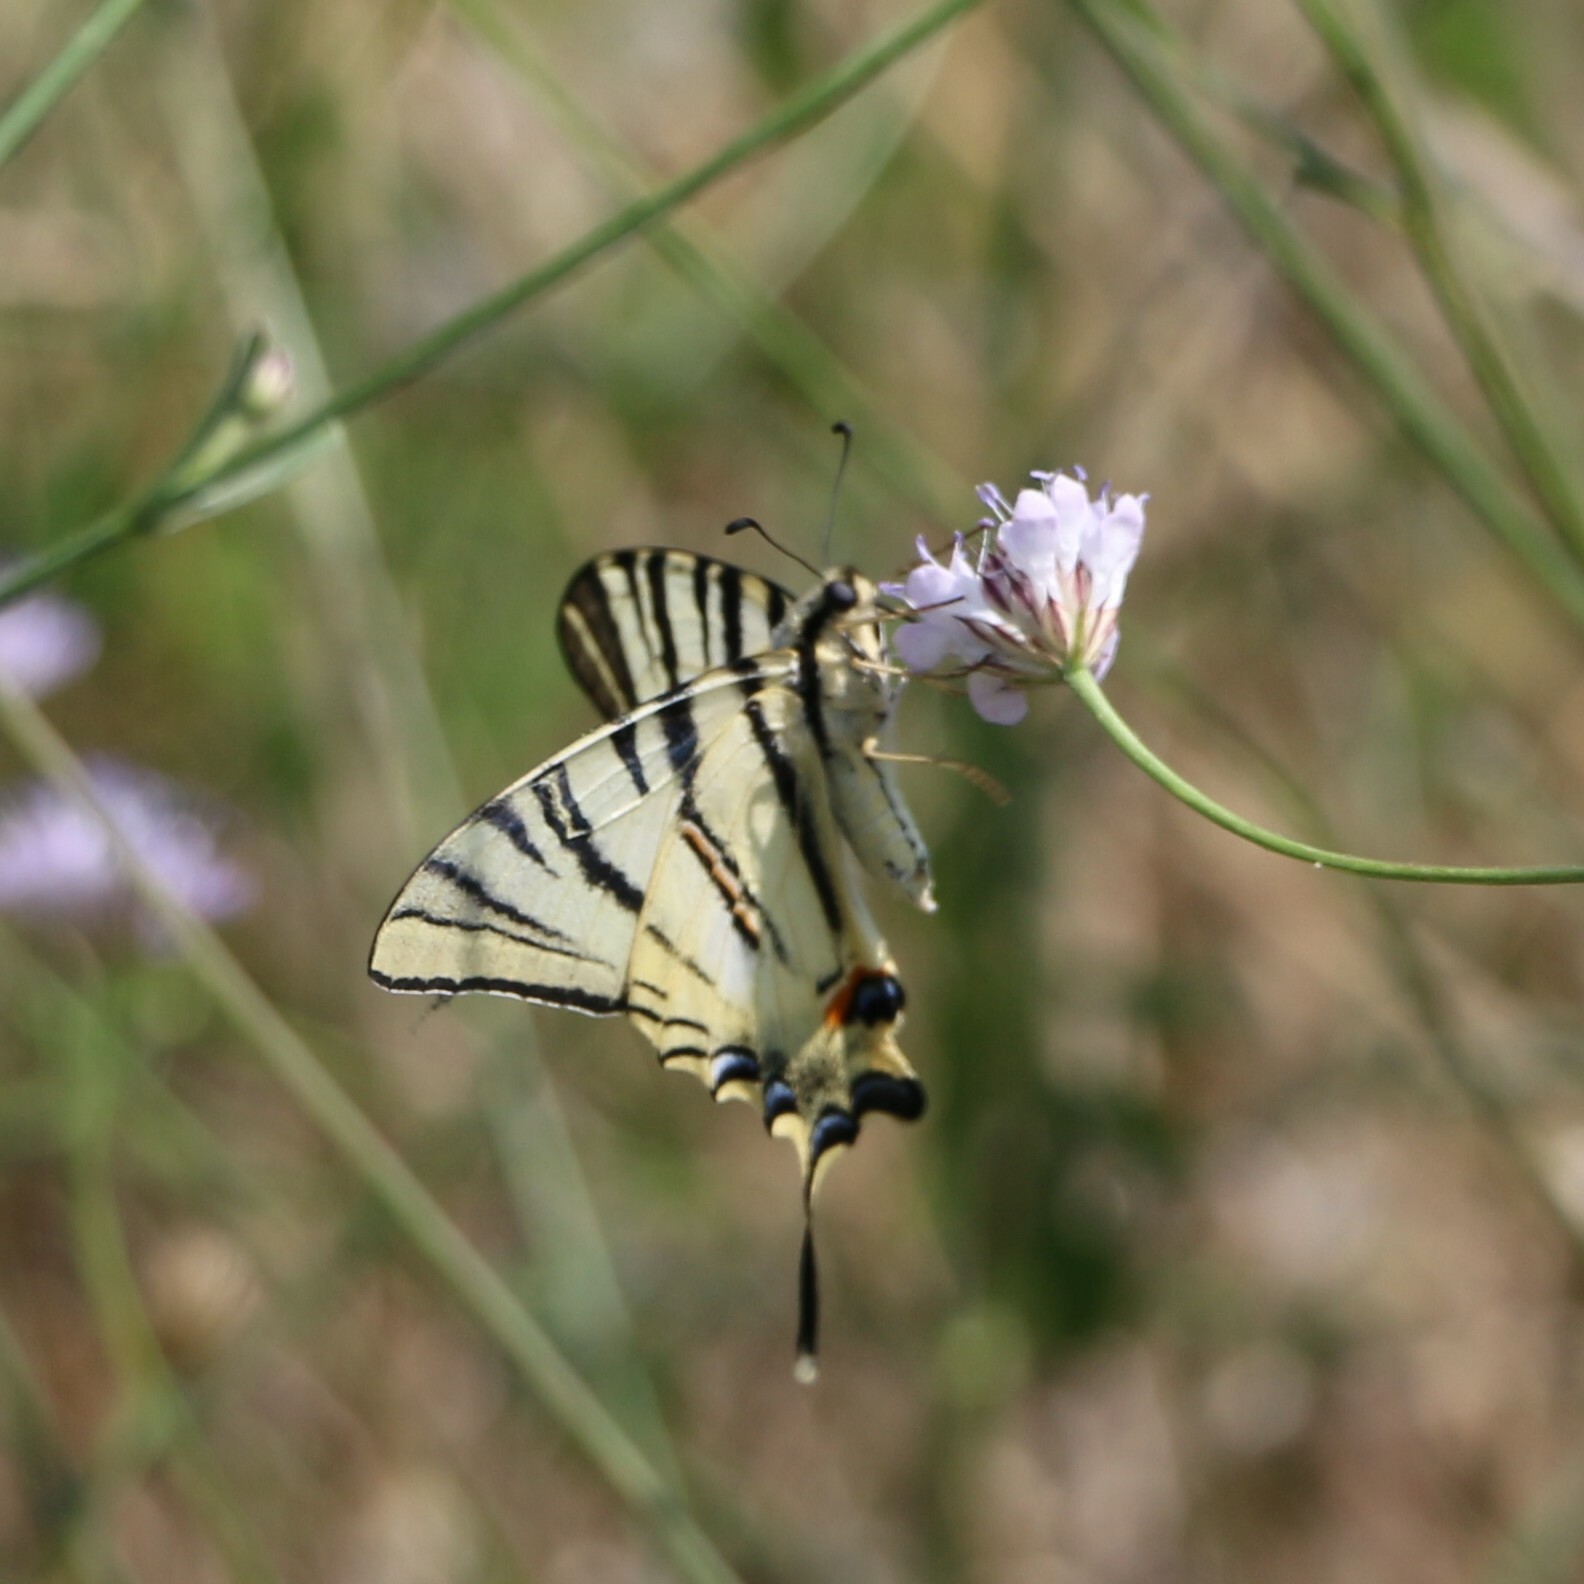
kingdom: Animalia
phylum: Arthropoda
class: Insecta
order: Lepidoptera
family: Papilionidae
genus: Iphiclides
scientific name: Iphiclides podalirius
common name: Scarce swallowtail
